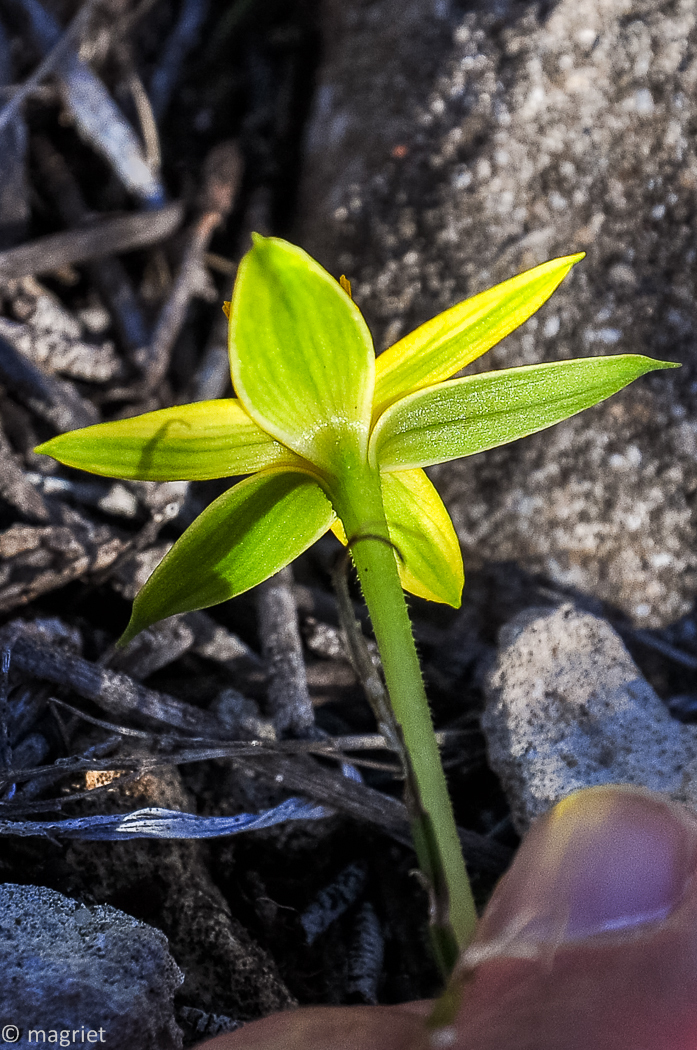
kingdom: Plantae
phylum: Tracheophyta
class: Liliopsida
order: Asparagales
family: Hypoxidaceae
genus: Empodium
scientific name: Empodium plicatum
